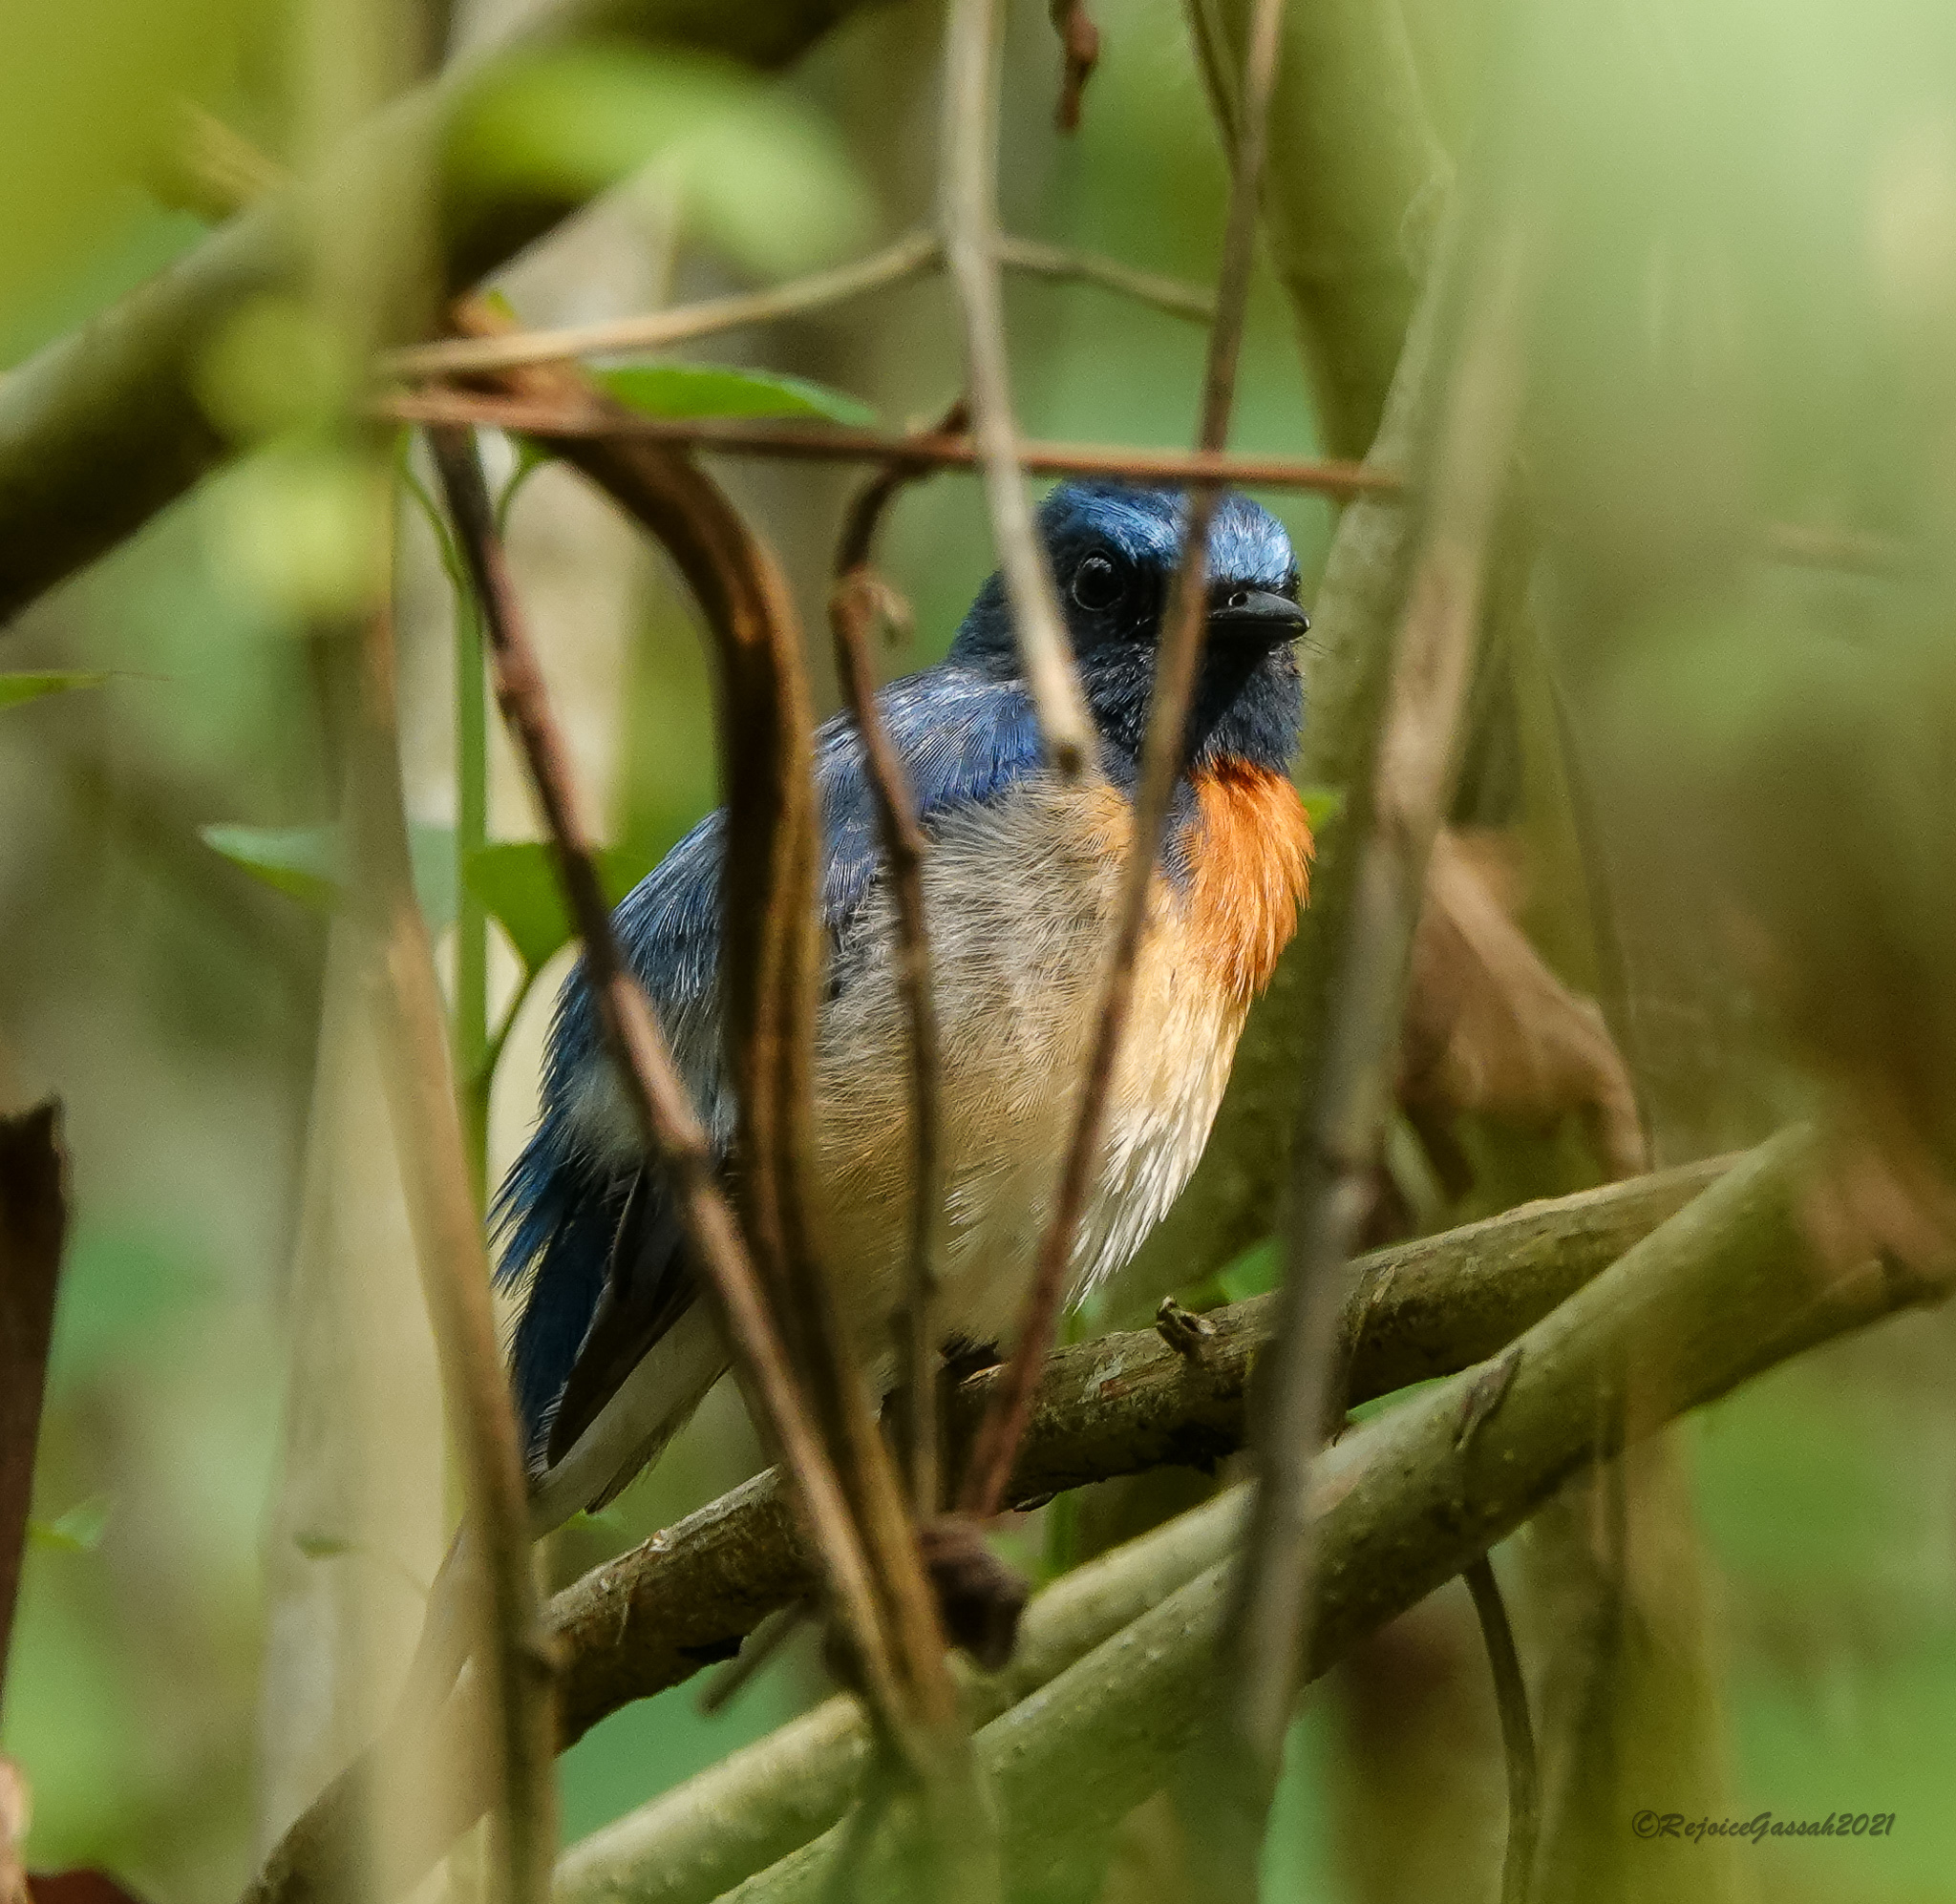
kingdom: Animalia
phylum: Chordata
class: Aves
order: Passeriformes
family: Muscicapidae
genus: Cyornis
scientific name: Cyornis rubeculoides
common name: Blue-throated blue flycatcher
